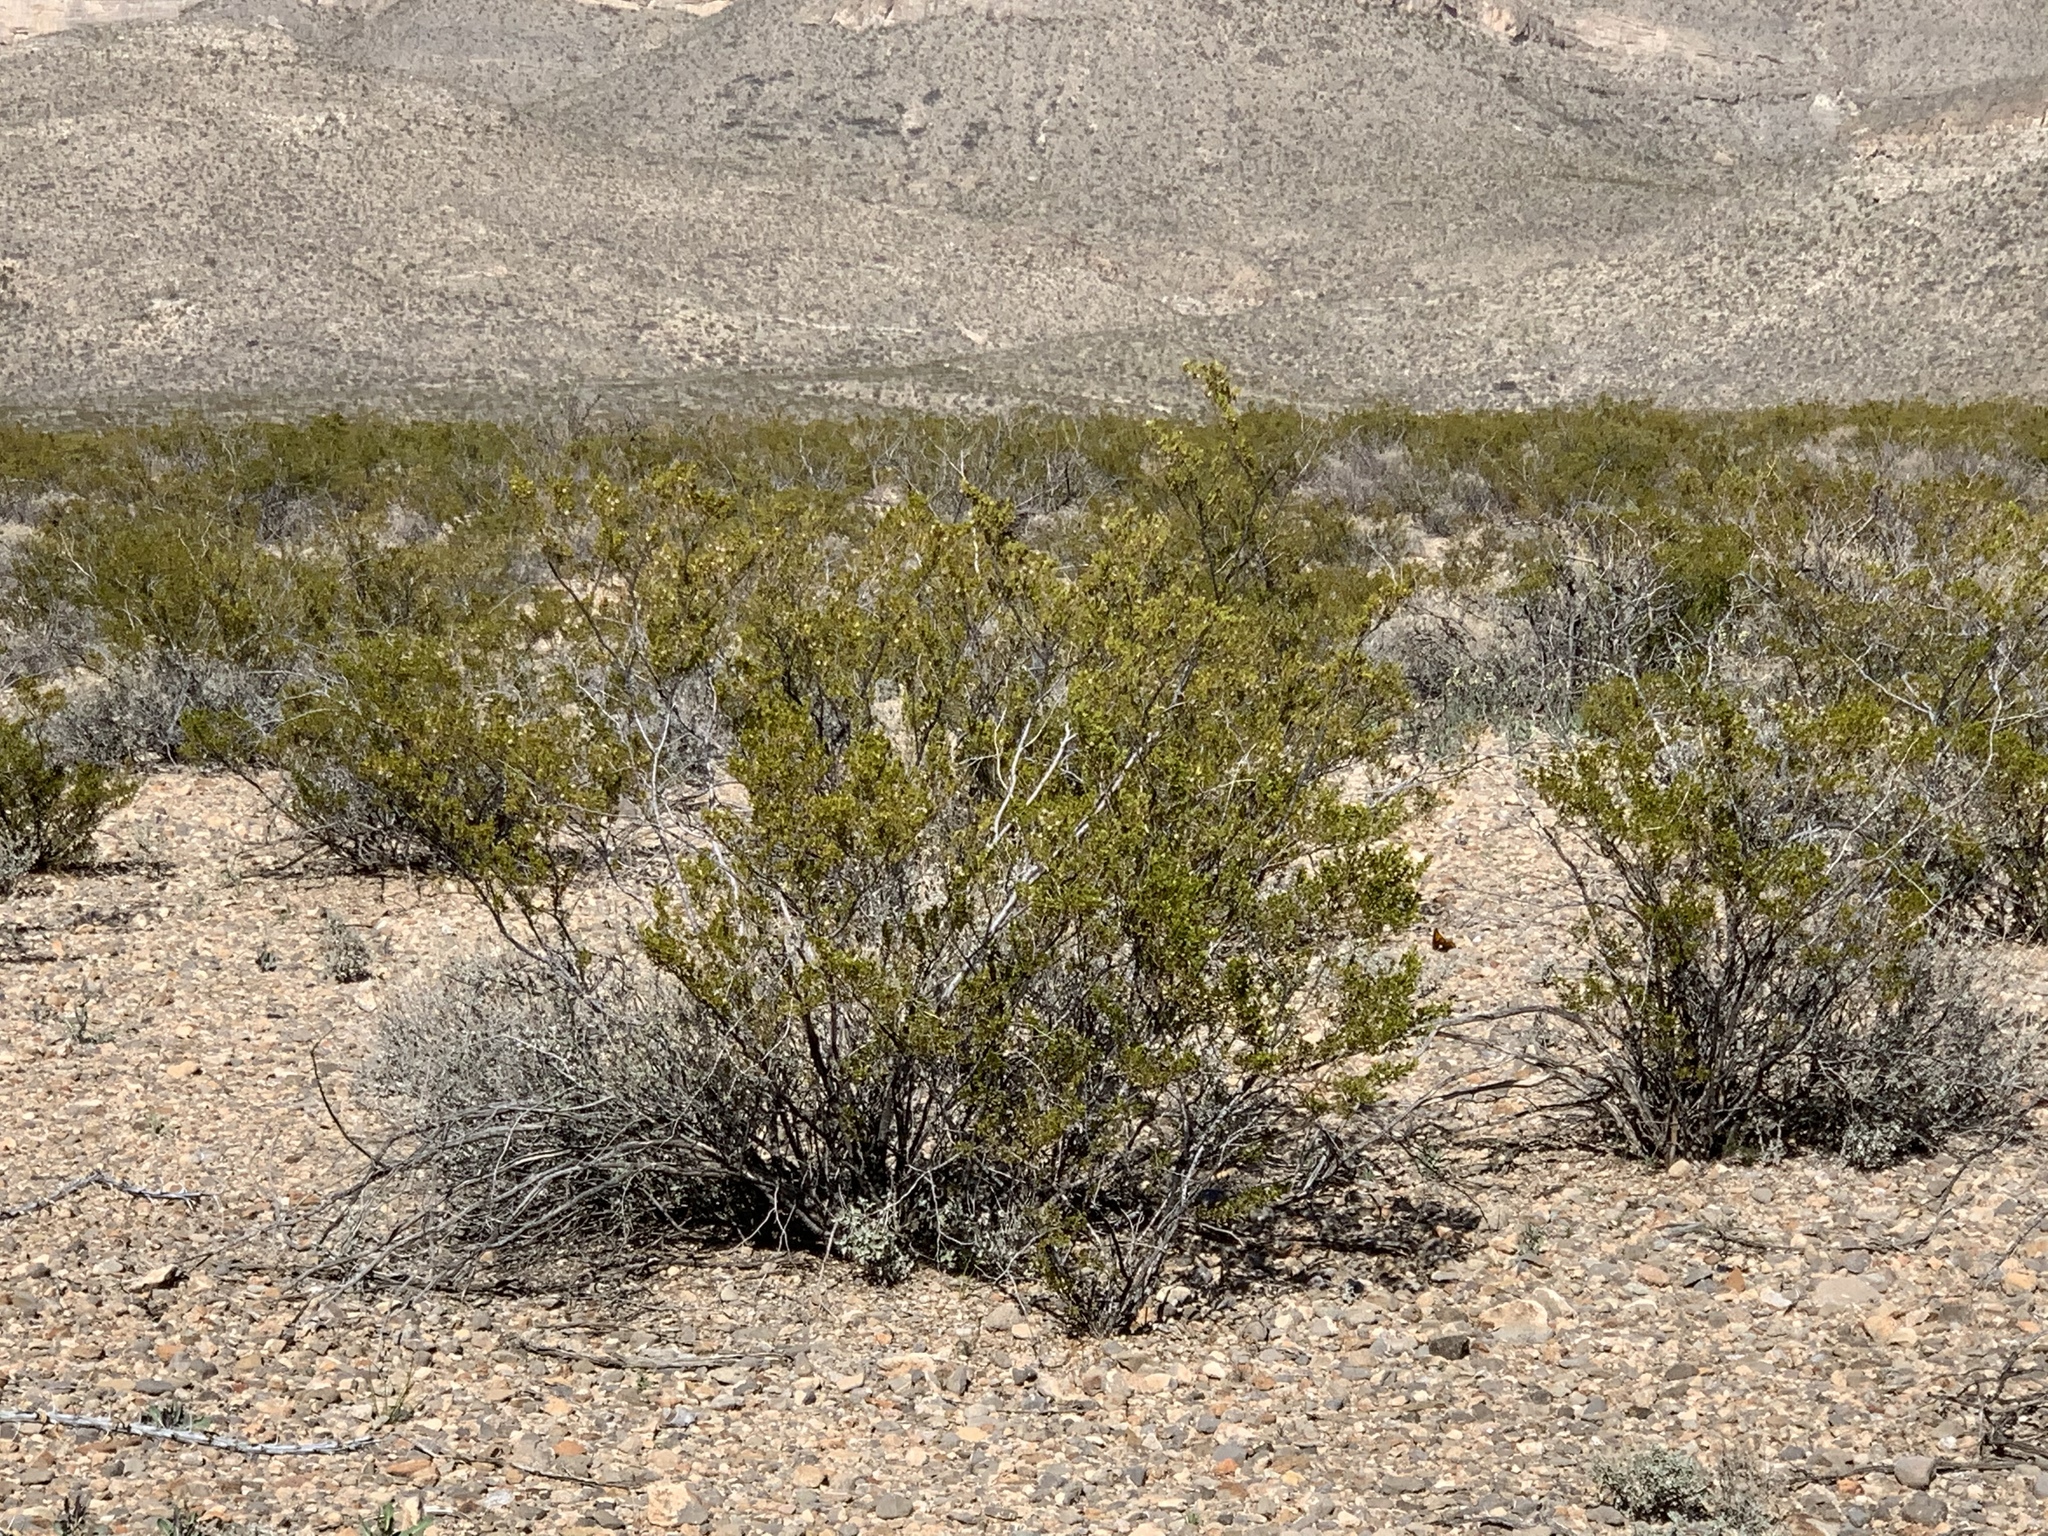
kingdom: Plantae
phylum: Tracheophyta
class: Magnoliopsida
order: Zygophyllales
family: Zygophyllaceae
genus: Larrea
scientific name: Larrea tridentata
